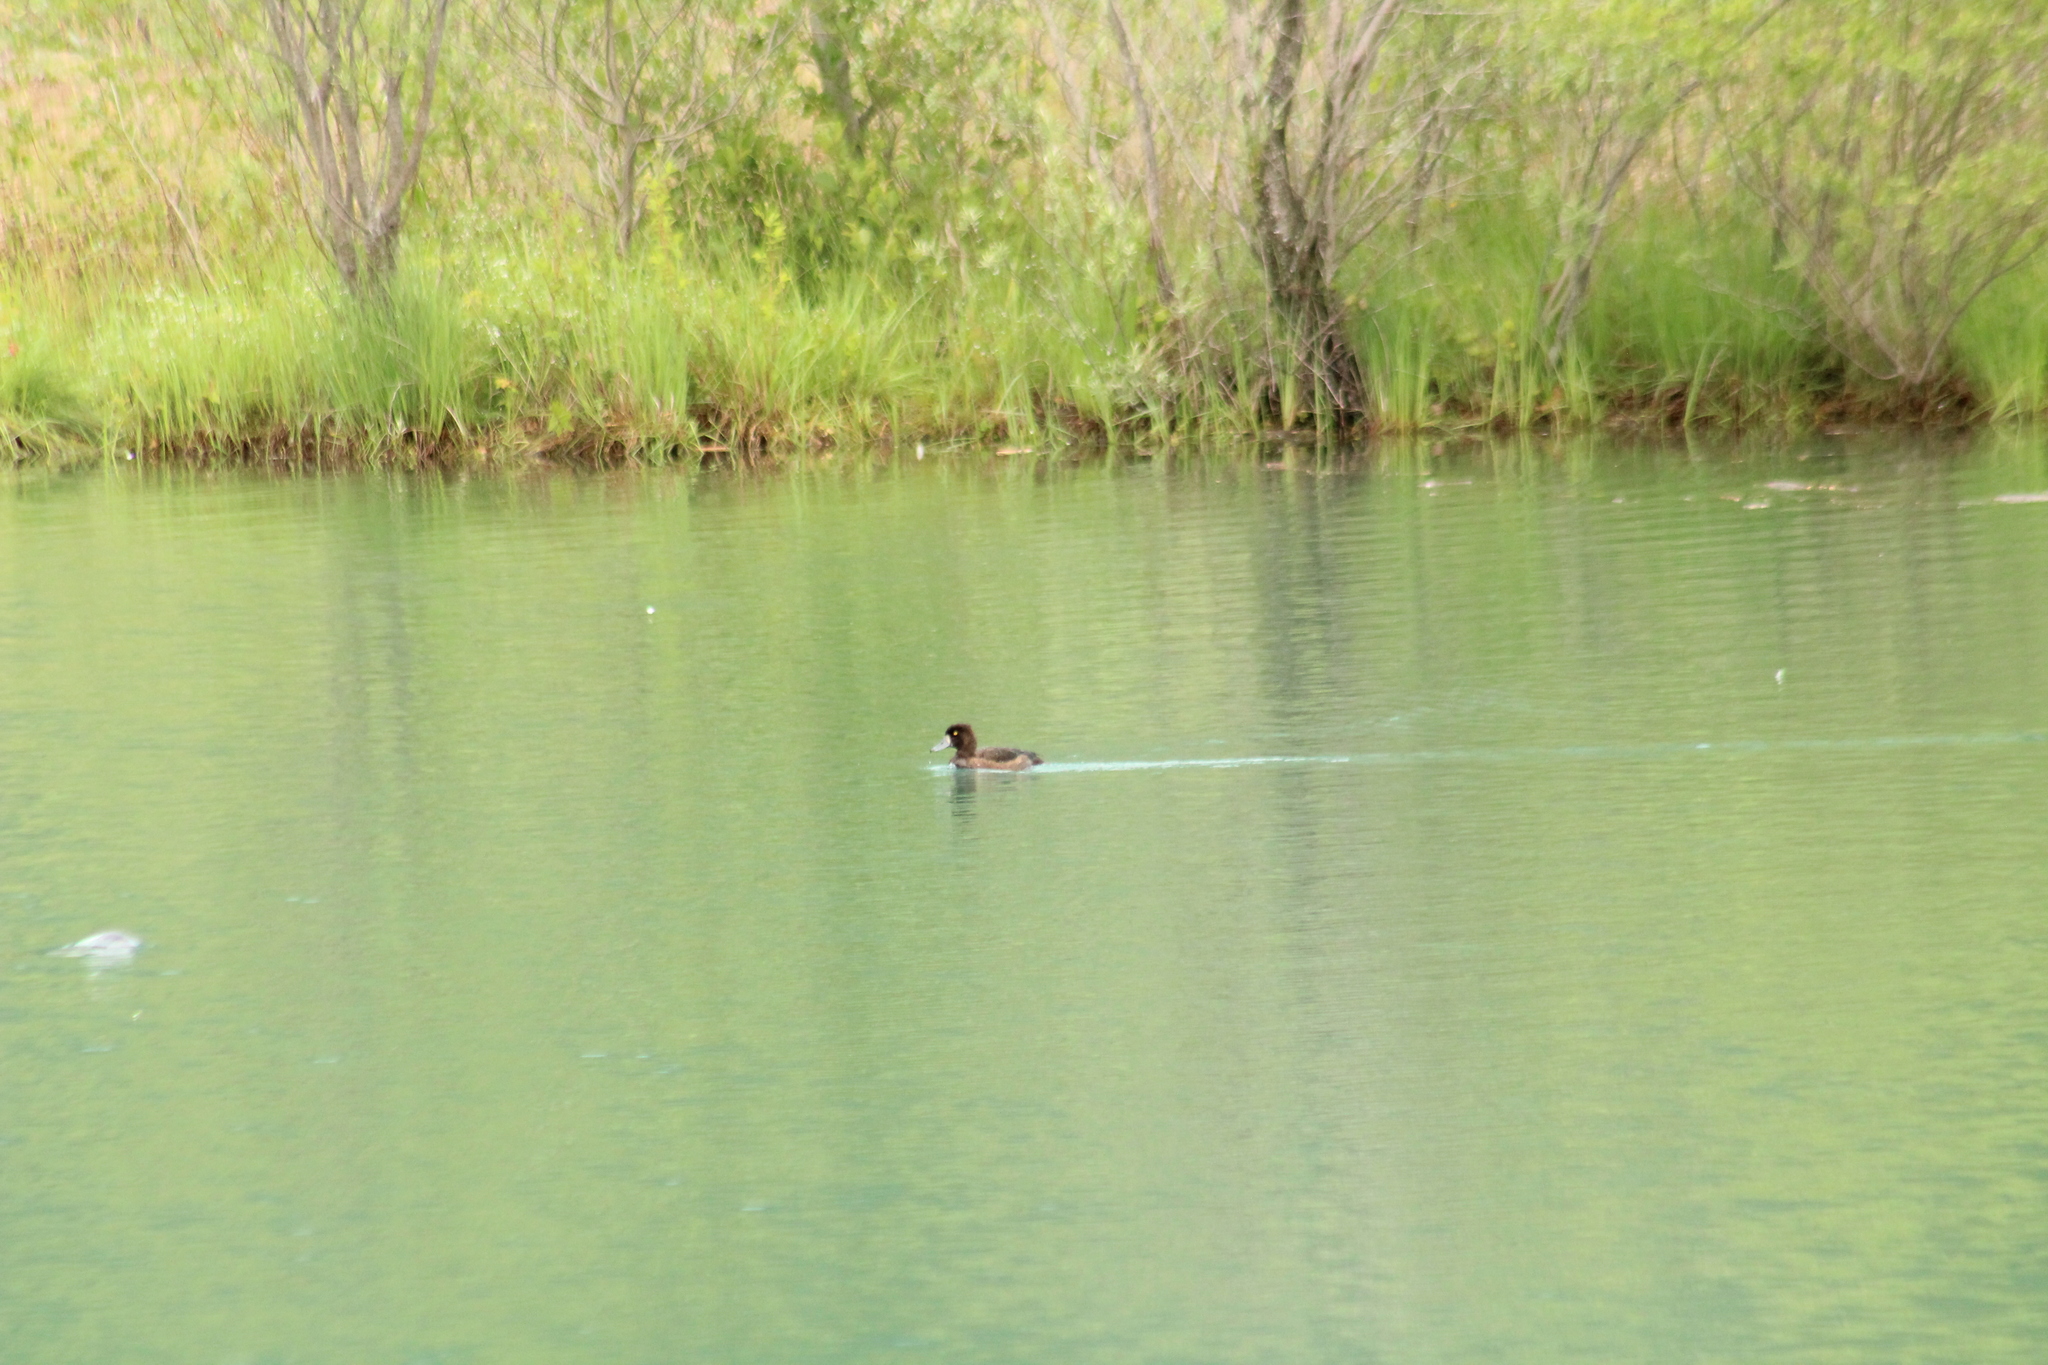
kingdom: Animalia
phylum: Chordata
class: Aves
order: Anseriformes
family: Anatidae
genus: Aythya
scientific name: Aythya fuligula
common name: Tufted duck
